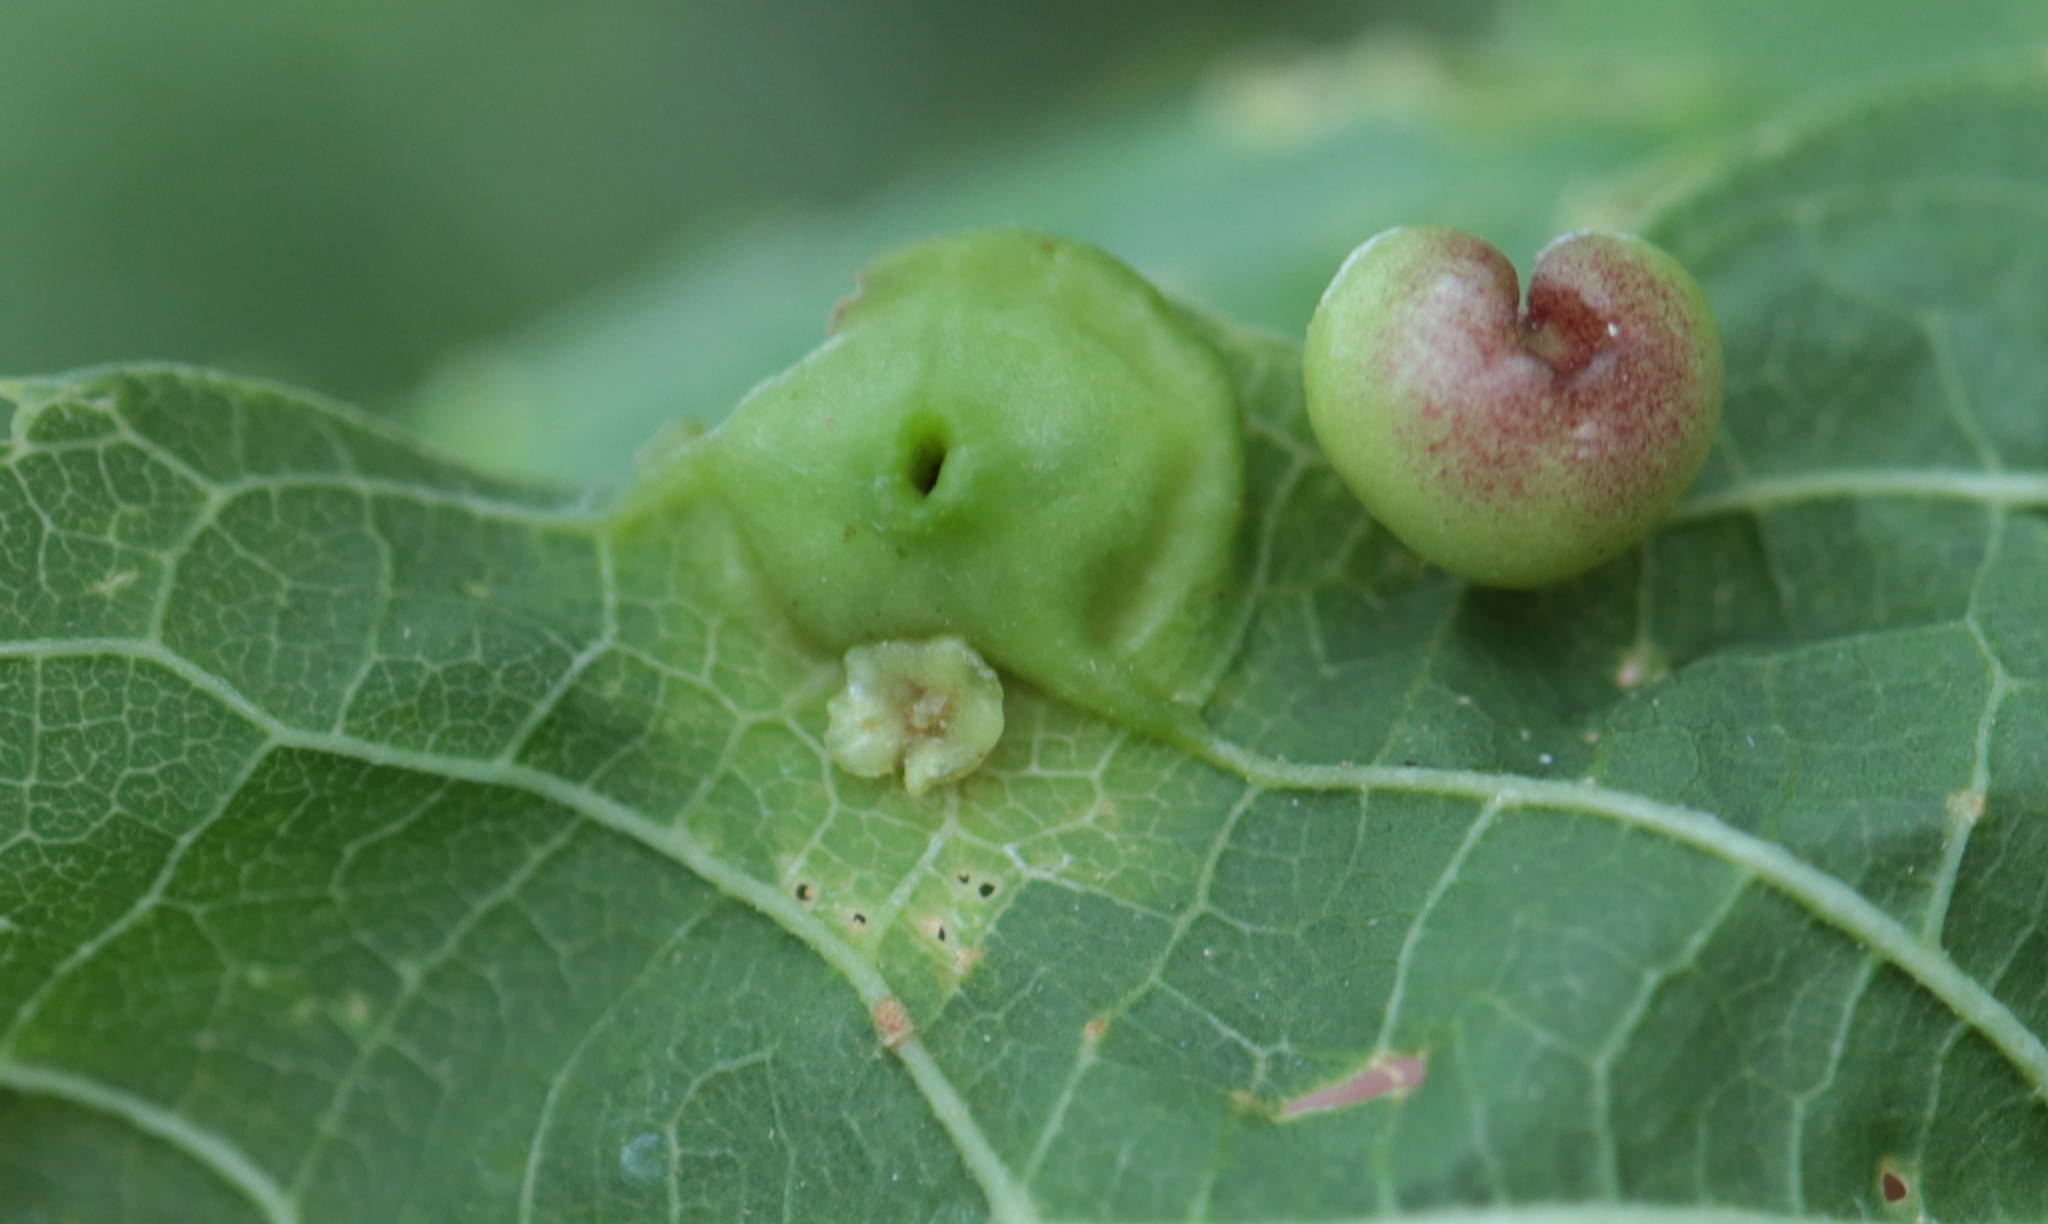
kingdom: Animalia
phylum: Arthropoda
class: Insecta
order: Hemiptera
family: Aphalaridae
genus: Pachypsylla
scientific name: Pachypsylla celtidisasterisca
